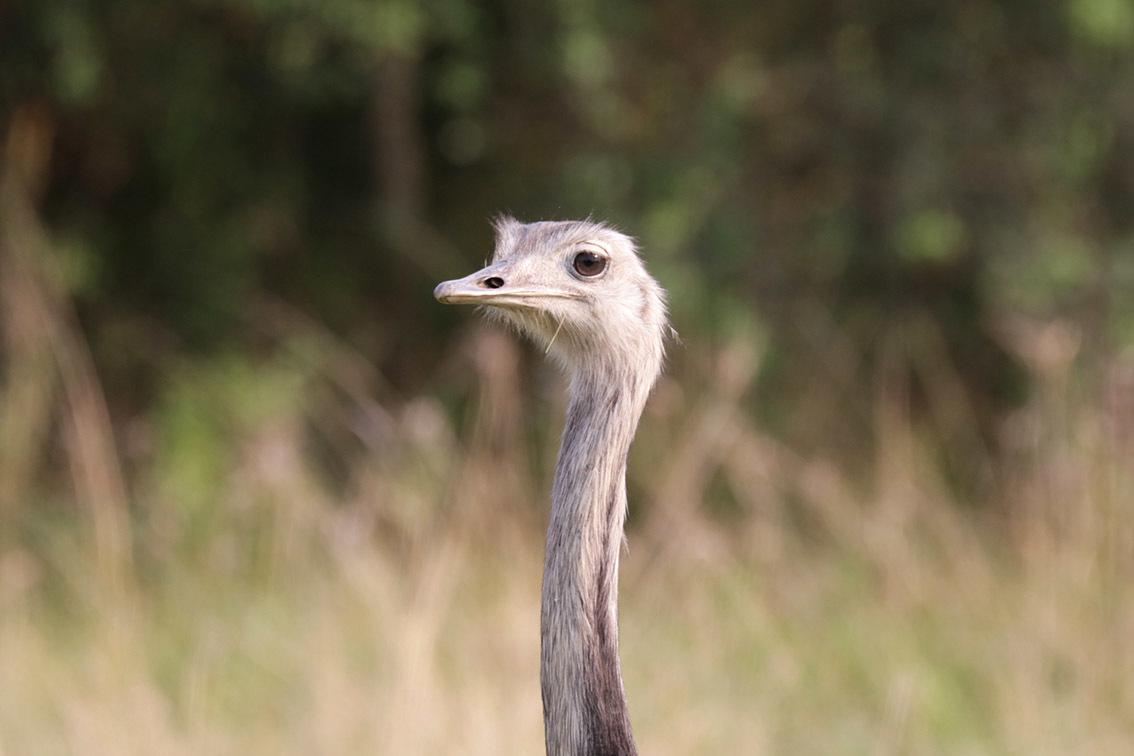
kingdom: Animalia
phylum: Chordata
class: Aves
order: Rheiformes
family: Rheidae
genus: Rhea
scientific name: Rhea americana
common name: Greater rhea
